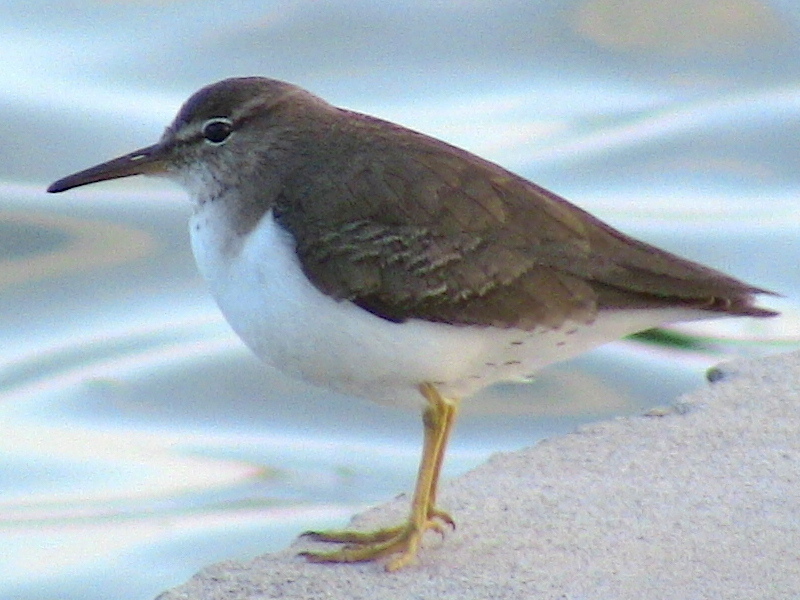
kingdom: Animalia
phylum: Chordata
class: Aves
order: Charadriiformes
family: Scolopacidae
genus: Actitis
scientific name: Actitis macularius
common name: Spotted sandpiper
